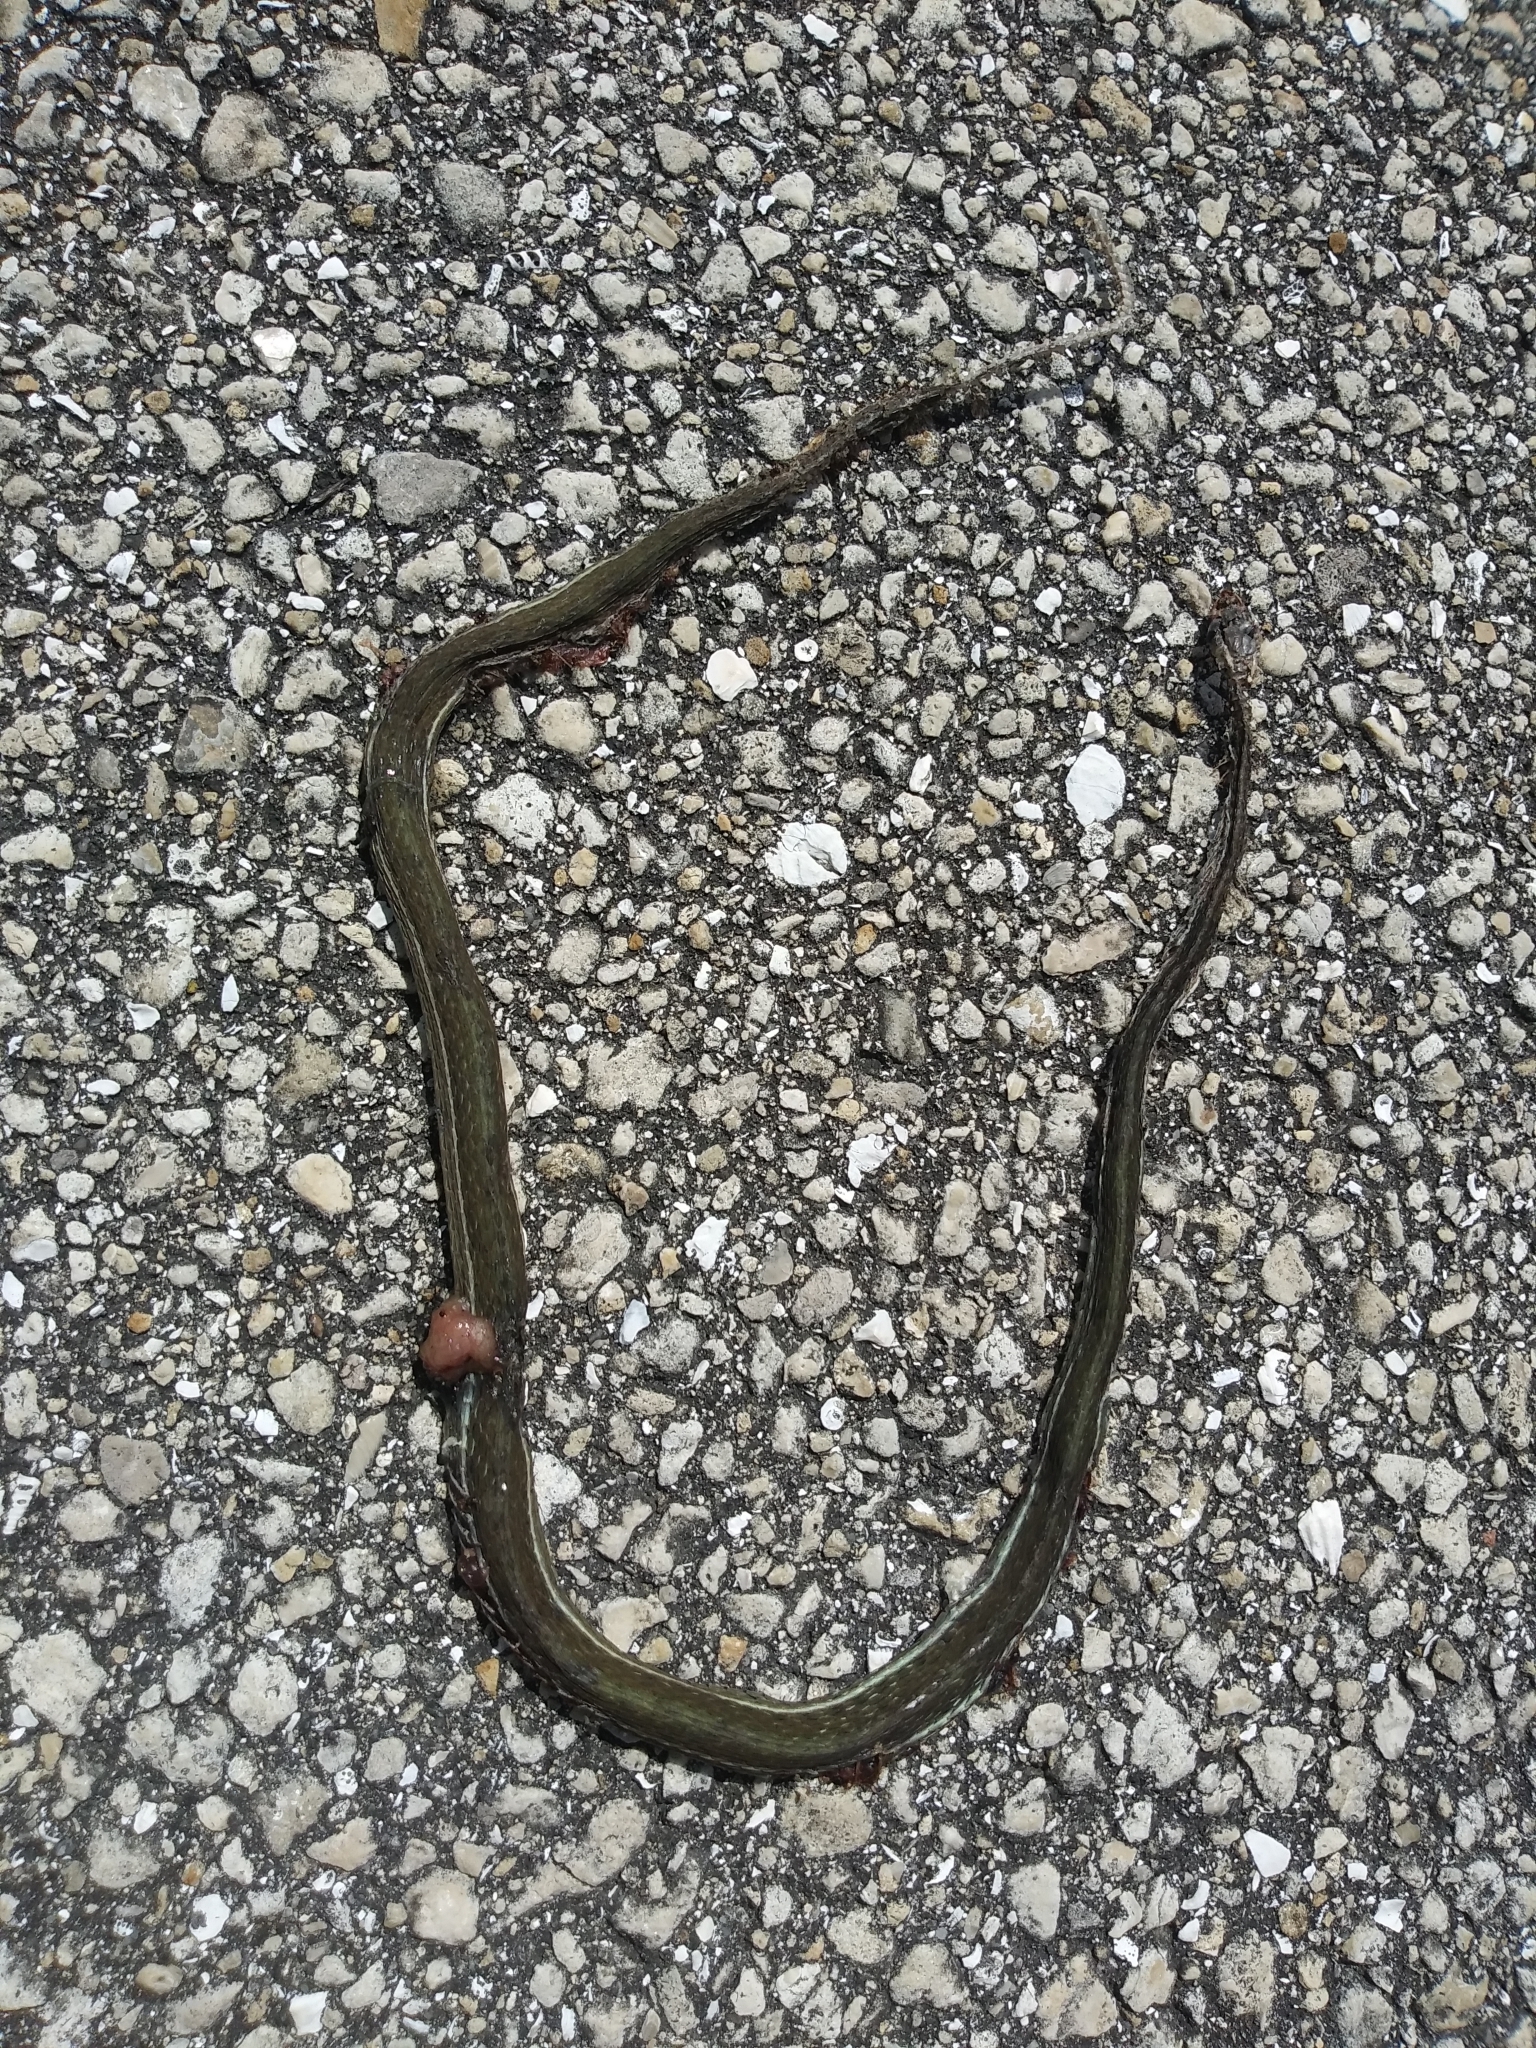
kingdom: Animalia
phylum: Chordata
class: Squamata
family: Colubridae
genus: Thamnophis
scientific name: Thamnophis saurita
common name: Eastern ribbonsnake
